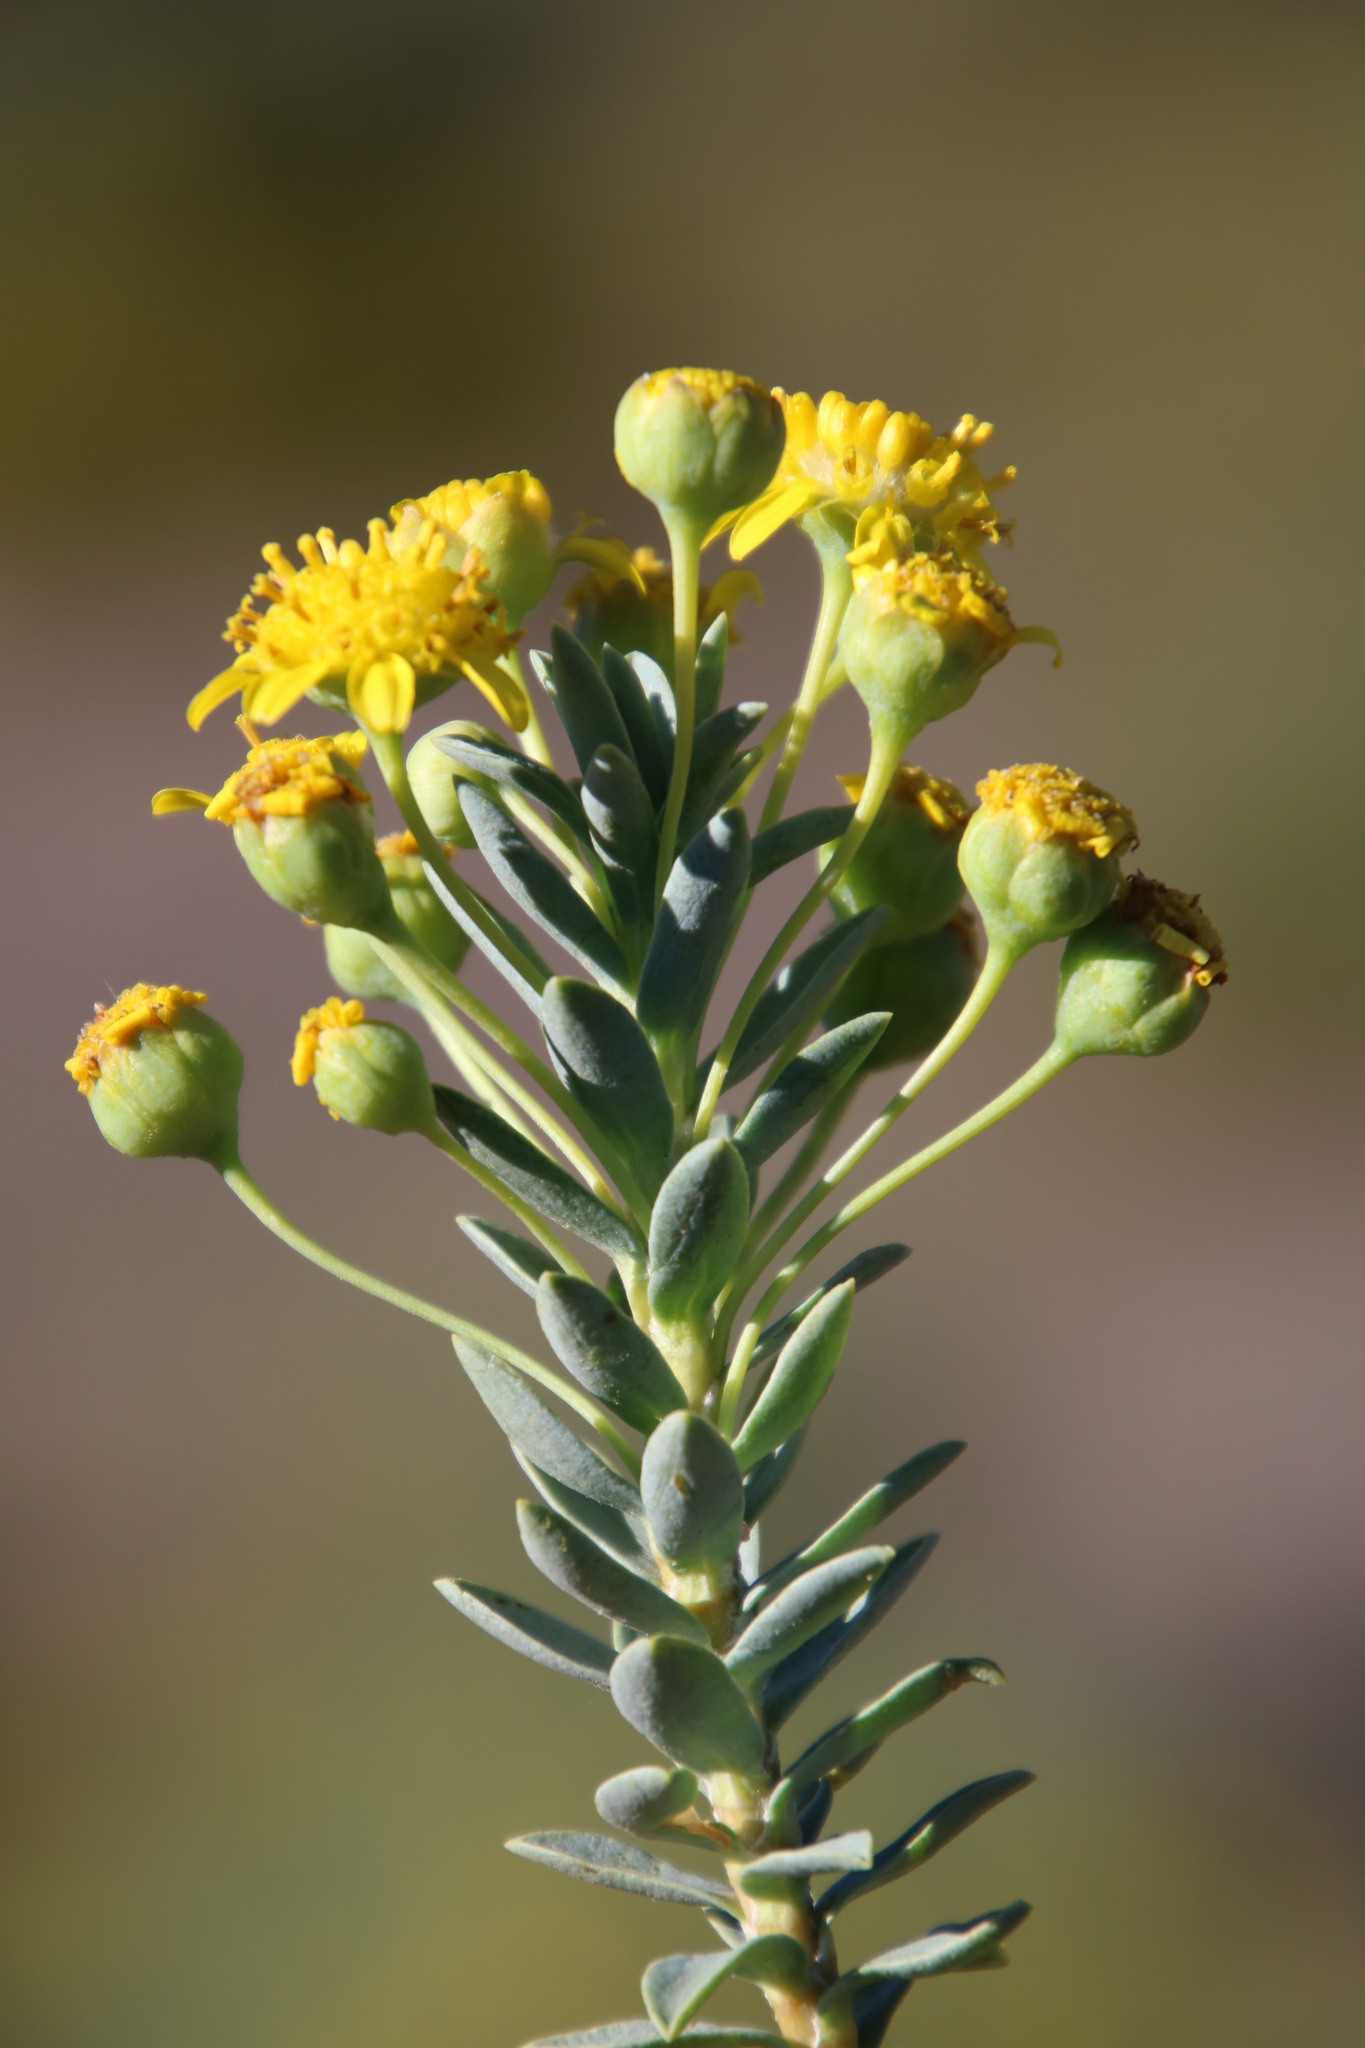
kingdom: Plantae
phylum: Tracheophyta
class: Magnoliopsida
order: Asterales
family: Asteraceae
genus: Euryops
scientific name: Euryops lateriflorus
